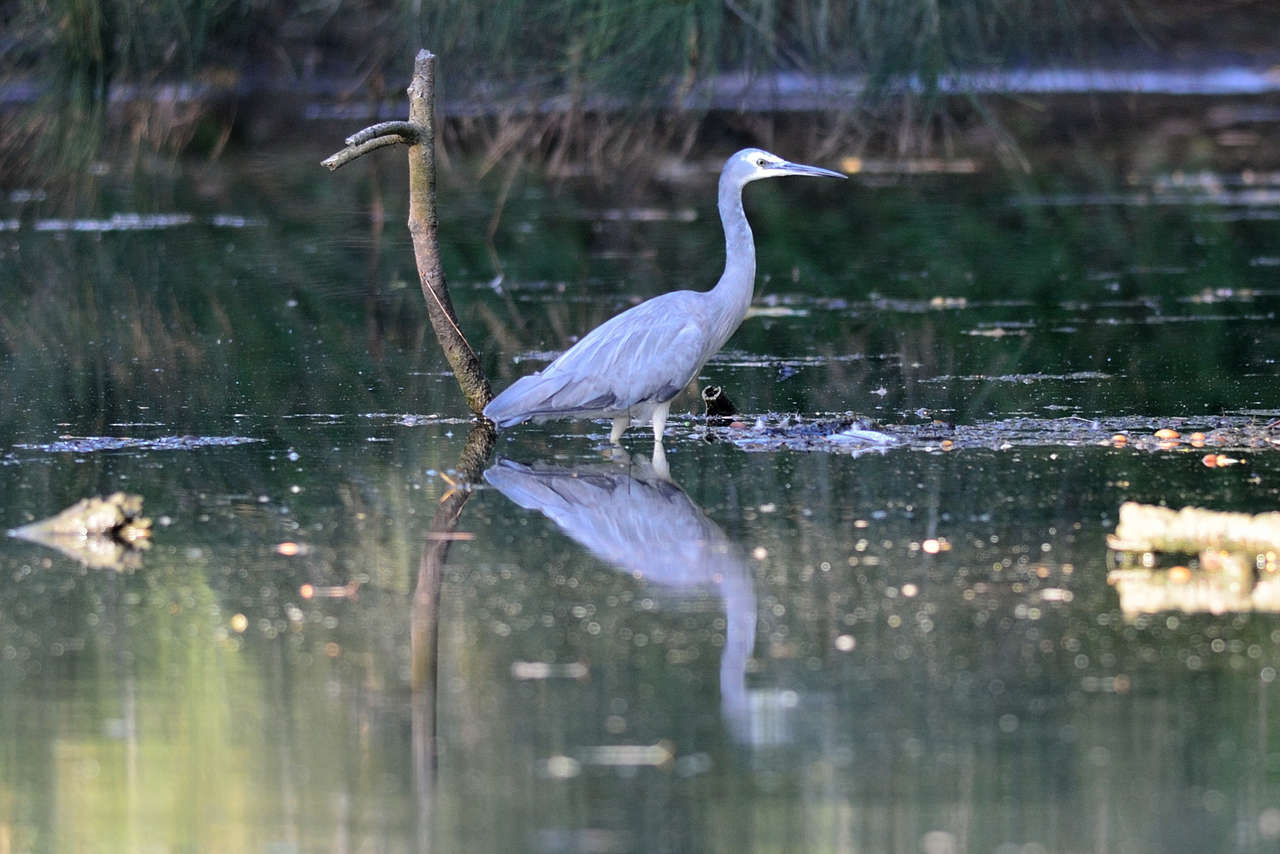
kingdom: Animalia
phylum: Chordata
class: Aves
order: Pelecaniformes
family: Ardeidae
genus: Egretta
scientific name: Egretta novaehollandiae
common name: White-faced heron
